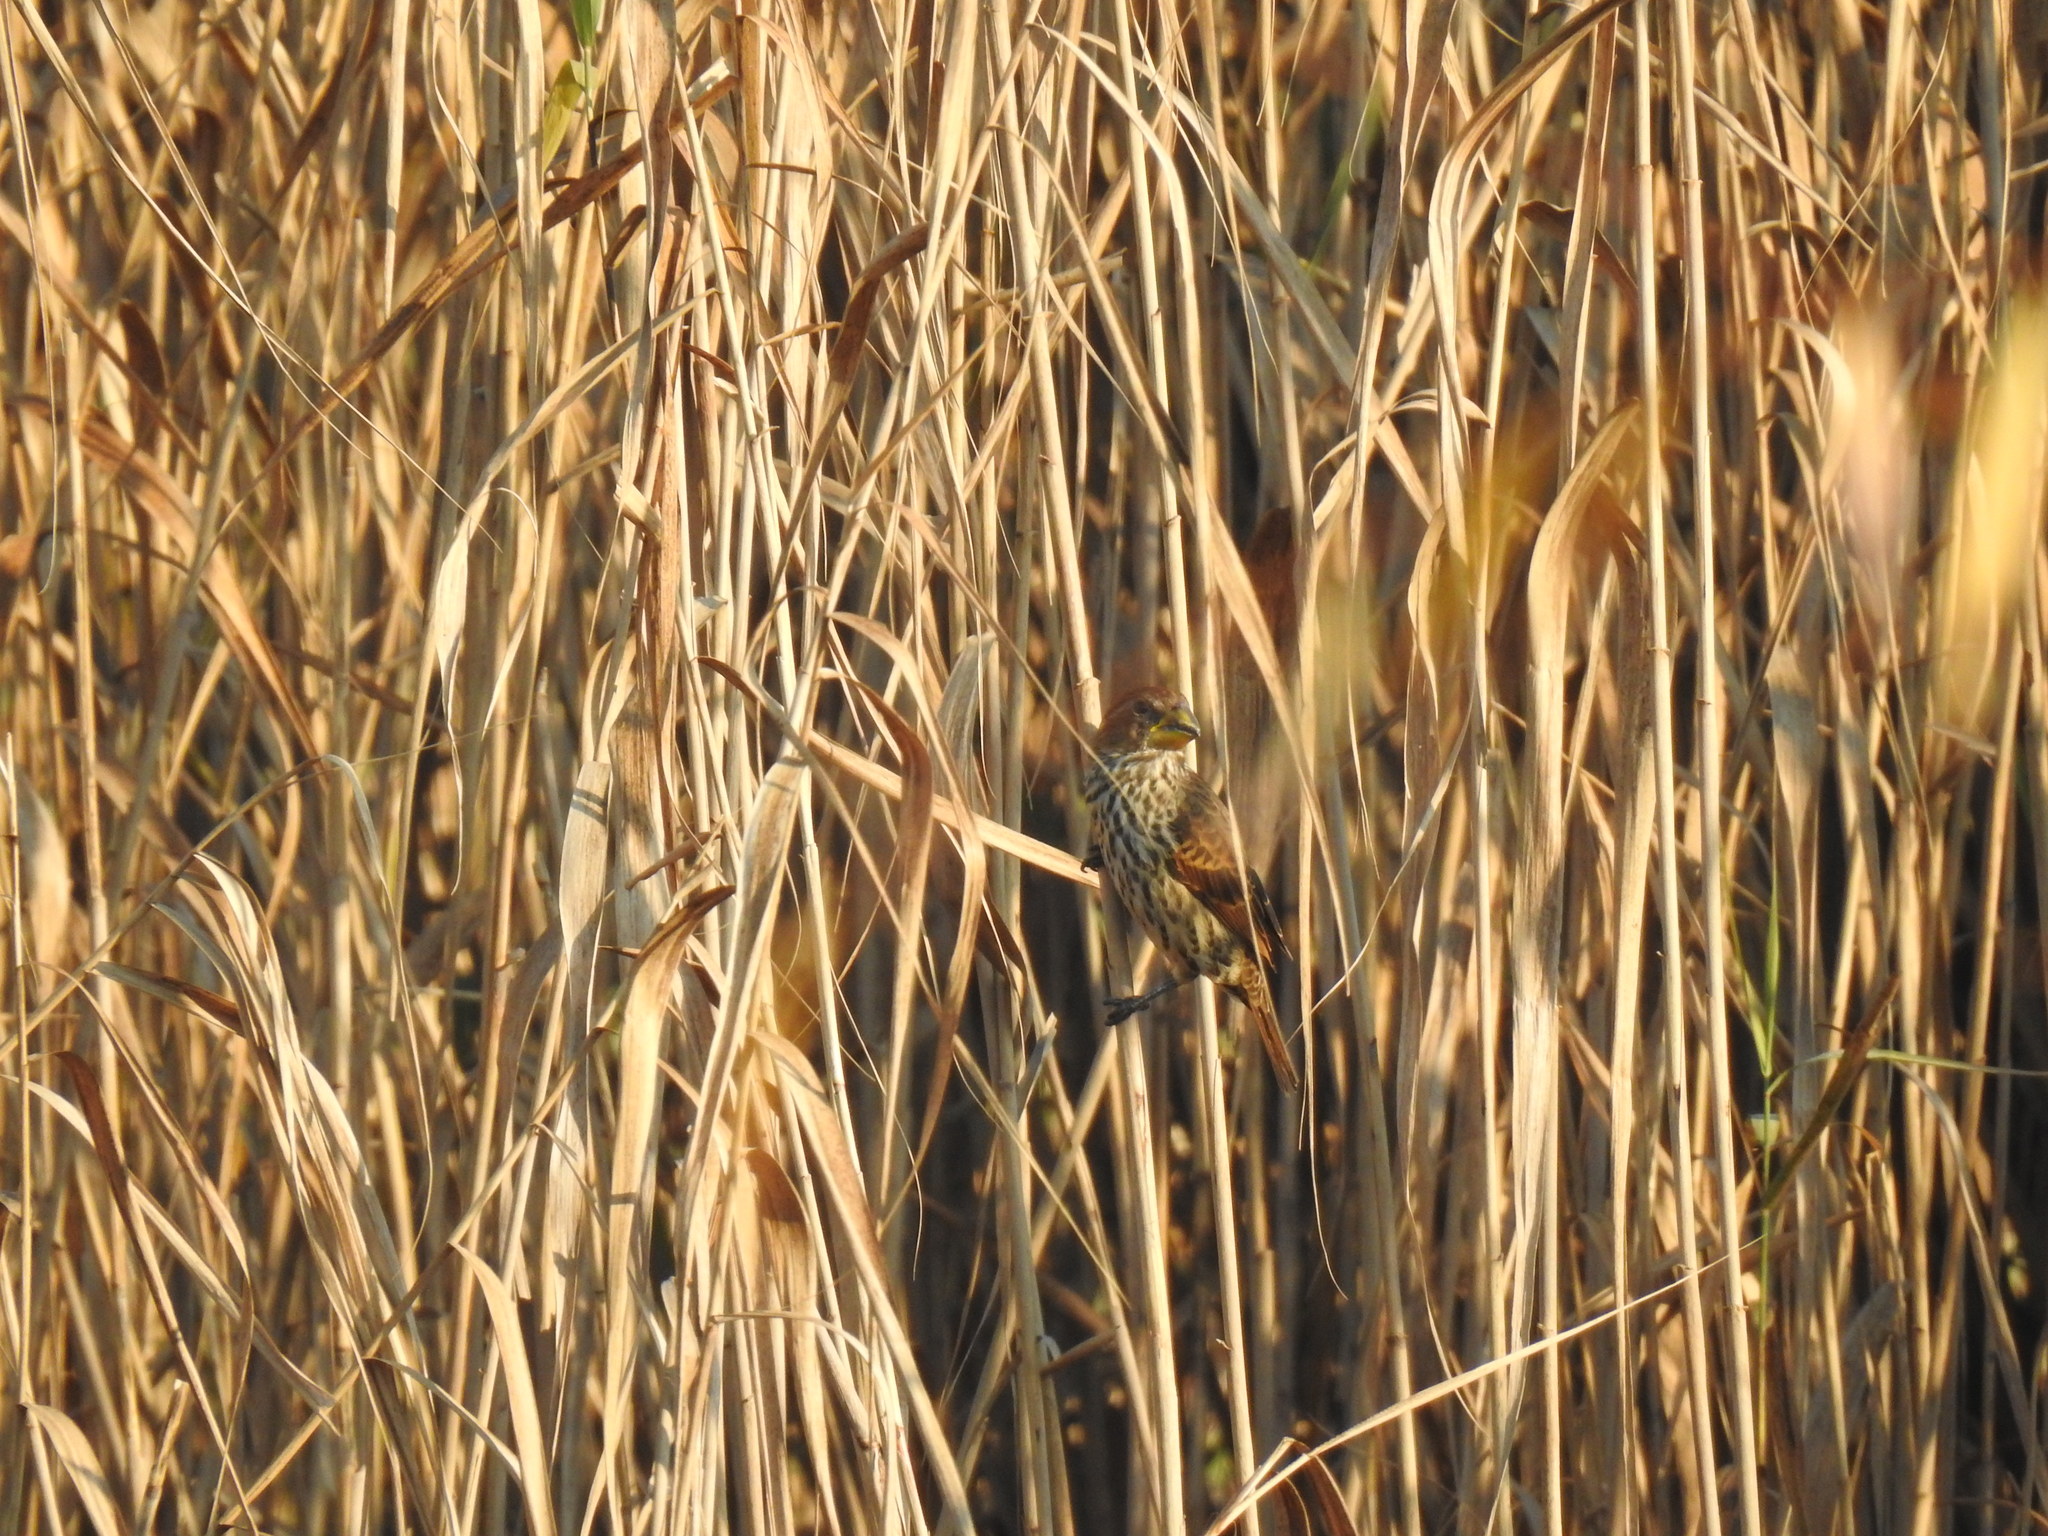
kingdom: Animalia
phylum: Chordata
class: Aves
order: Passeriformes
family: Ploceidae
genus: Amblyospiza
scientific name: Amblyospiza albifrons
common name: Thick-billed weaver
